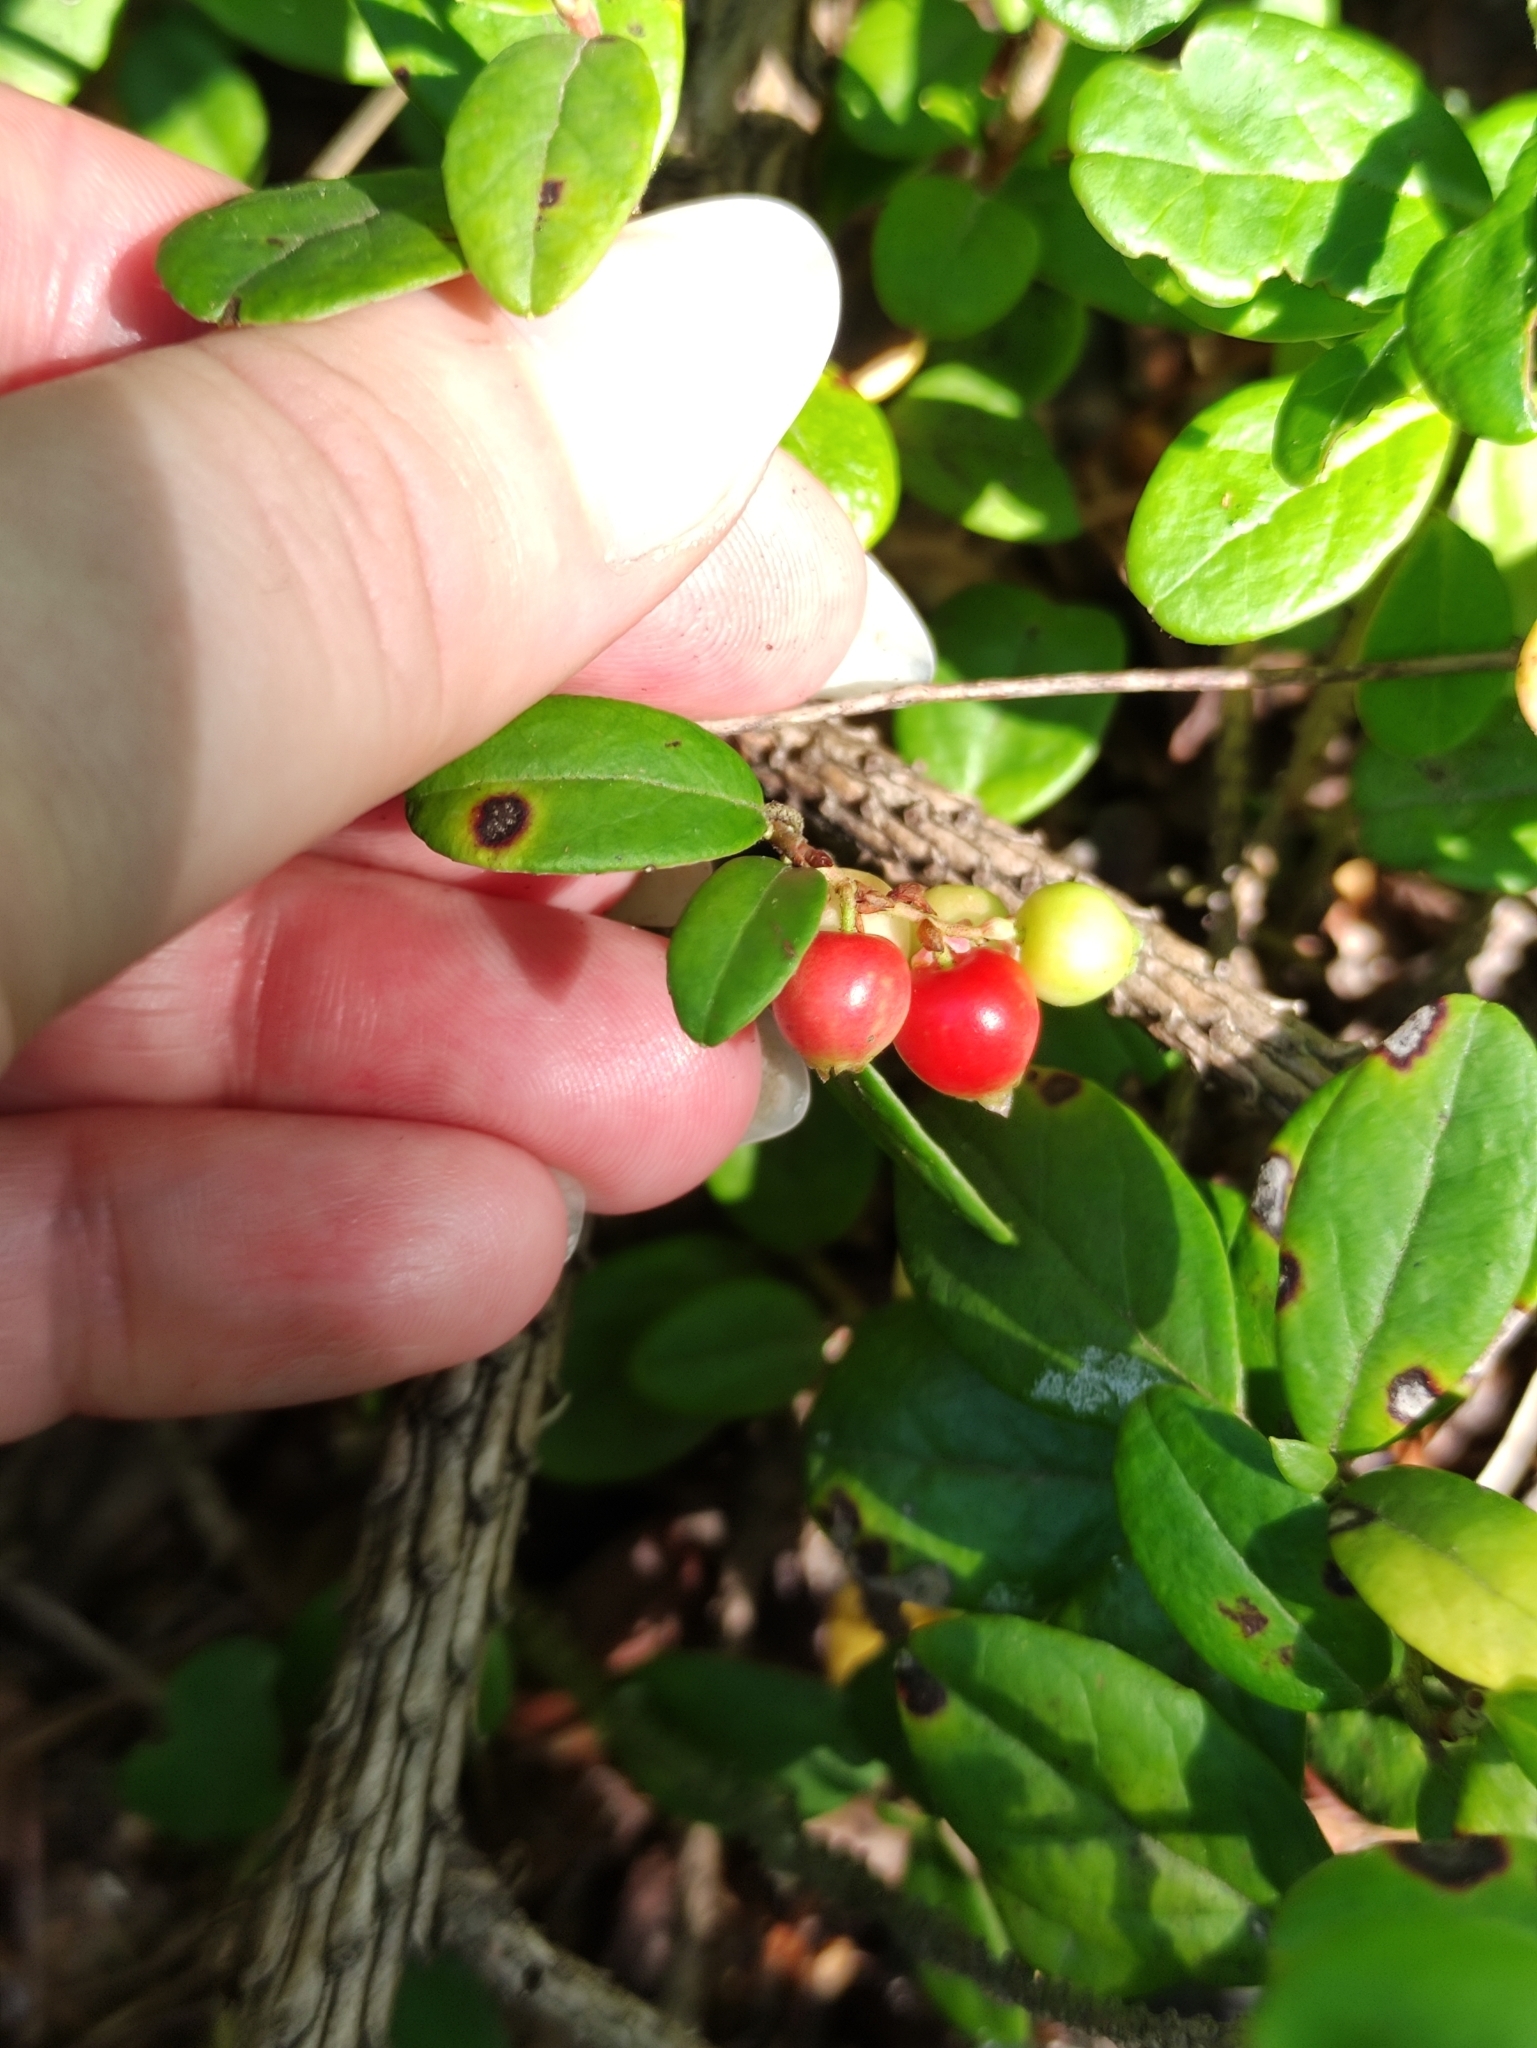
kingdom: Plantae
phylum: Tracheophyta
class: Magnoliopsida
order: Ericales
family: Ericaceae
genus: Vaccinium
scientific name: Vaccinium vitis-idaea
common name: Cowberry
